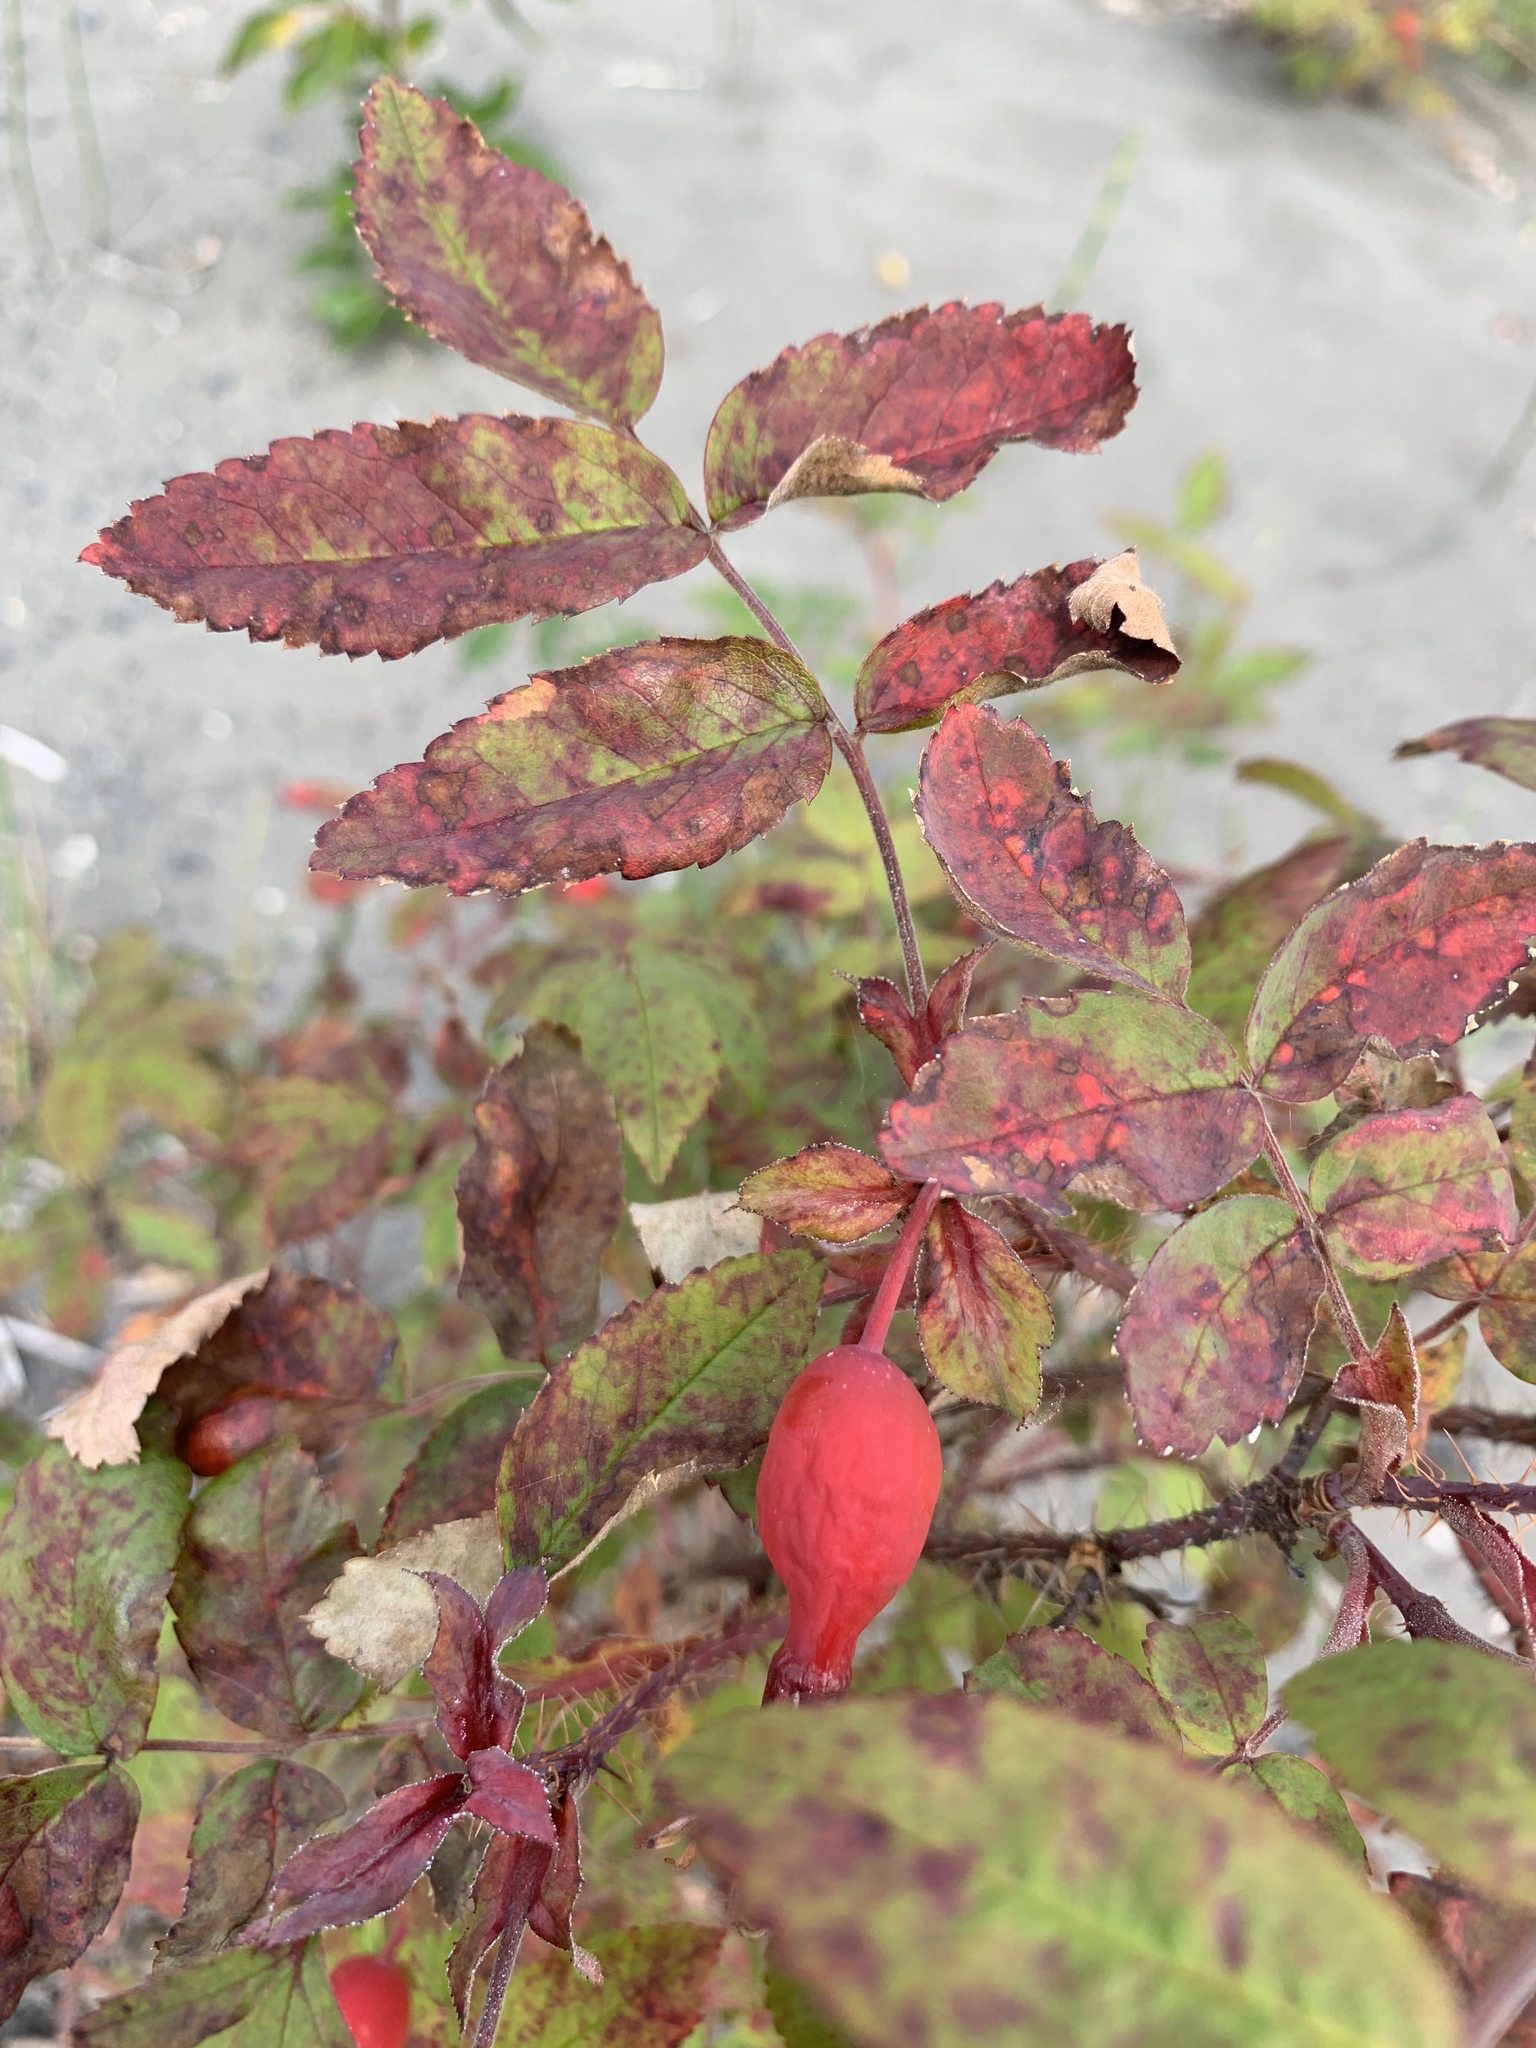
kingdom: Plantae
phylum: Tracheophyta
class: Magnoliopsida
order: Rosales
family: Rosaceae
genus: Rosa
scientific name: Rosa acicularis
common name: Prickly rose
